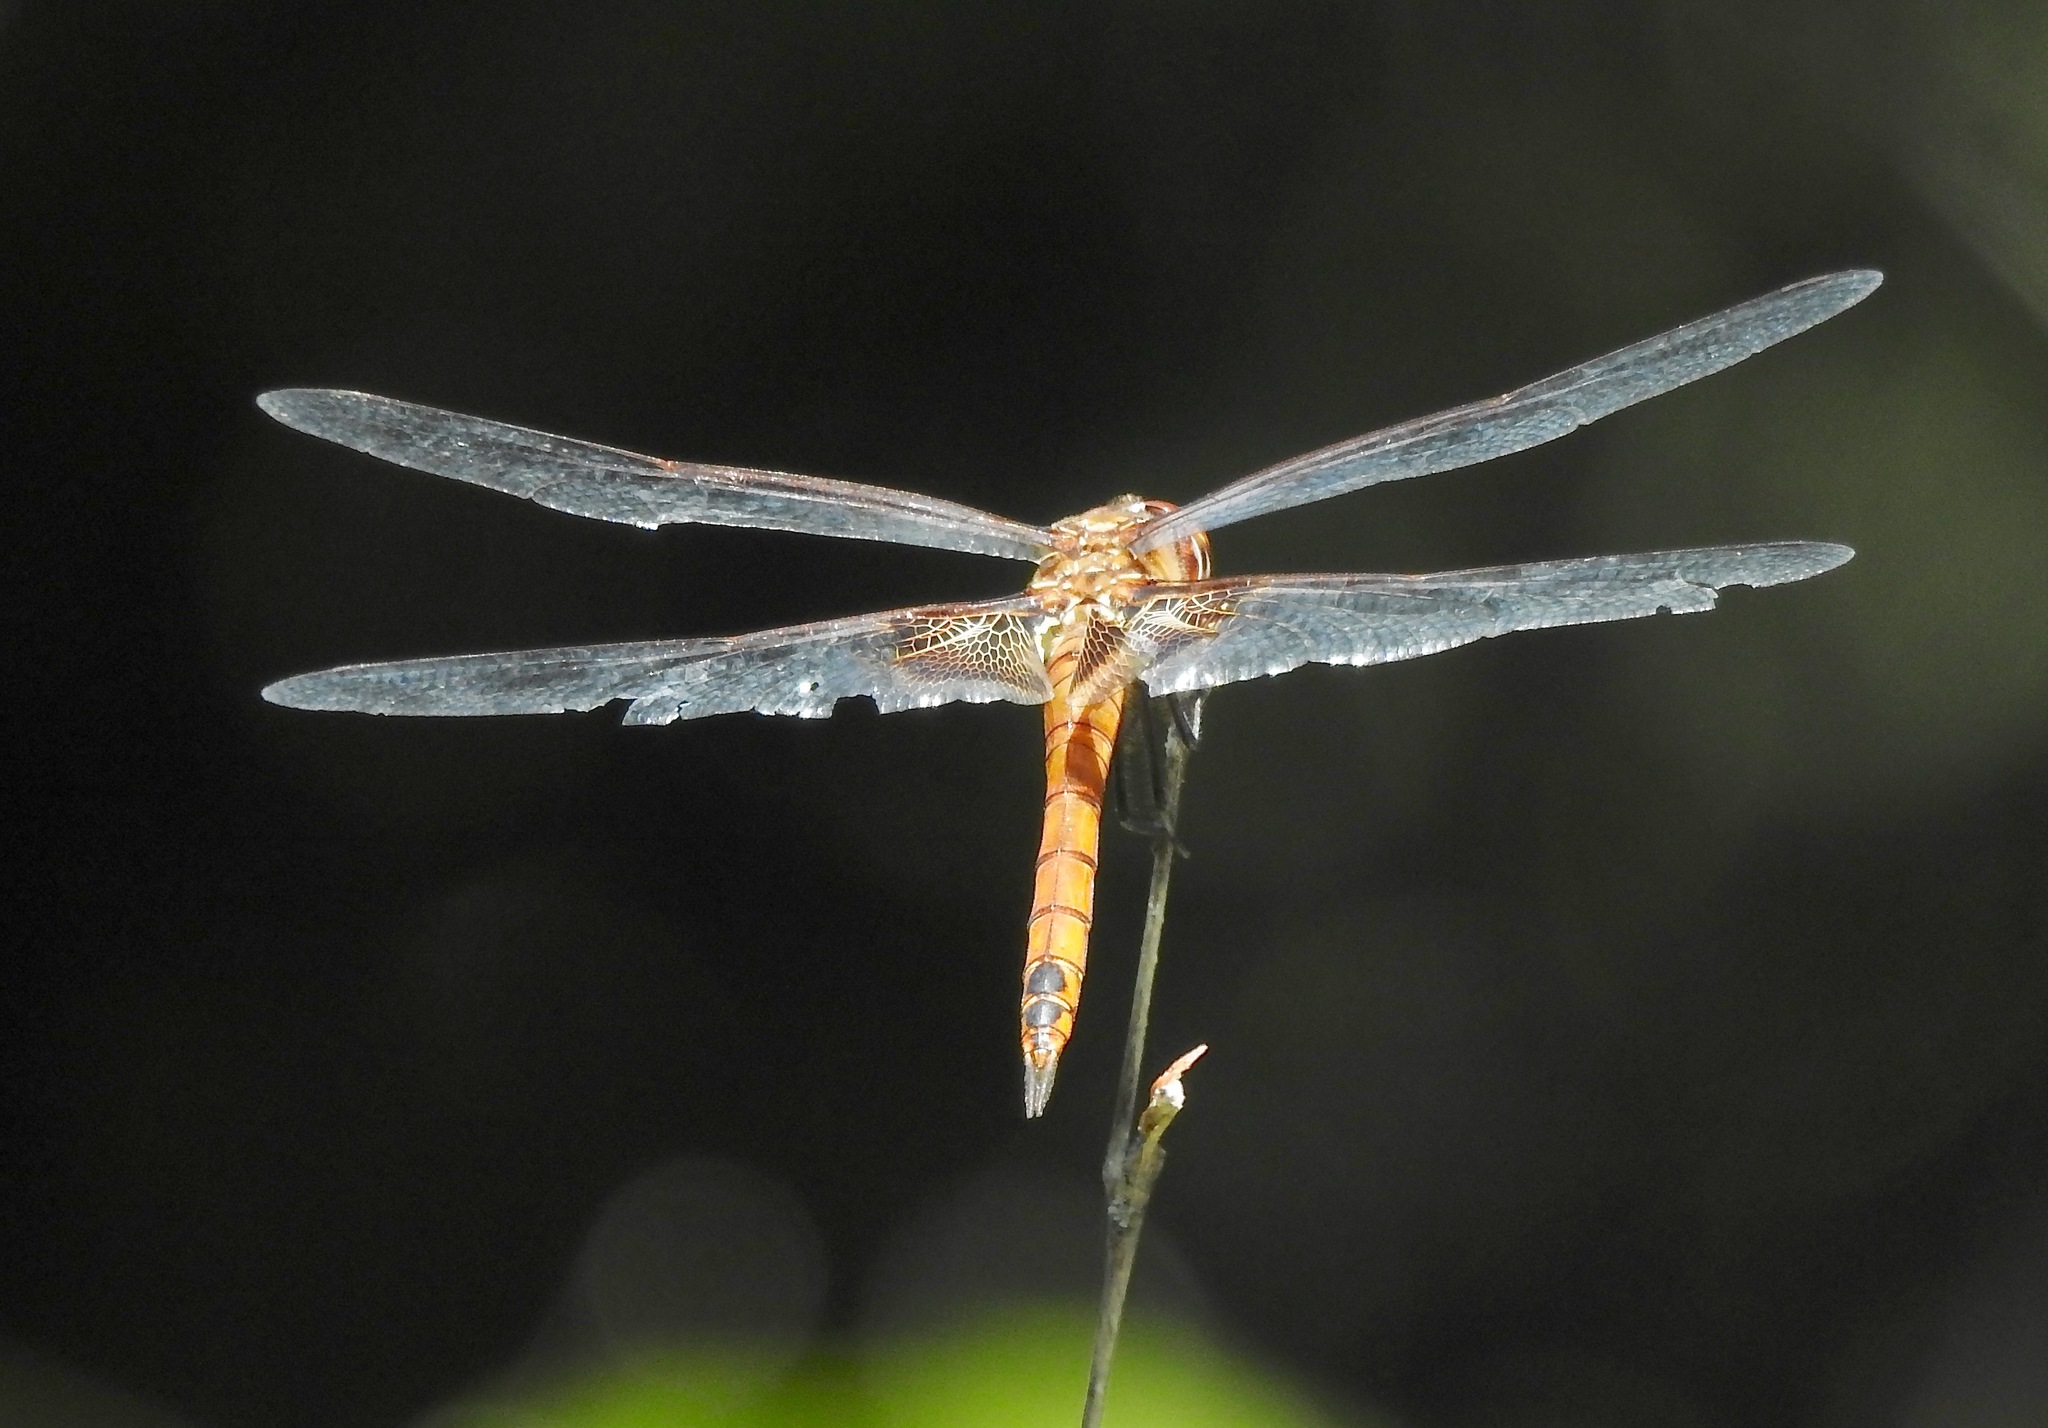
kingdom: Animalia
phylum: Arthropoda
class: Insecta
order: Odonata
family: Libellulidae
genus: Tramea
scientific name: Tramea onusta
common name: Red saddlebags
